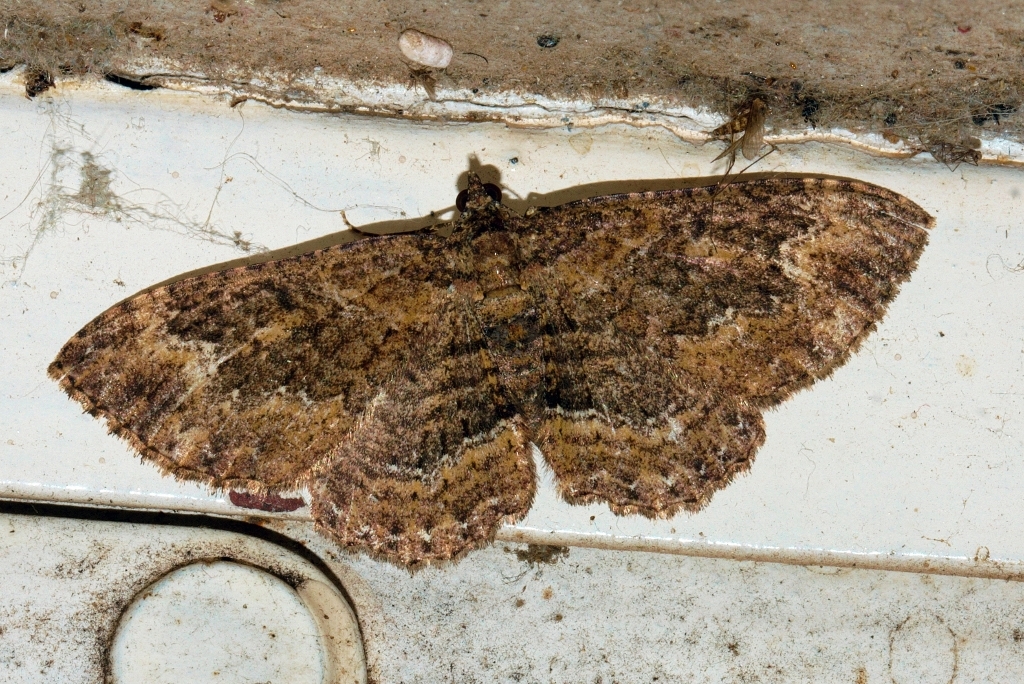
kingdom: Animalia
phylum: Arthropoda
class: Insecta
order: Lepidoptera
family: Geometridae
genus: Disclisioprocta
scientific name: Disclisioprocta natalata
